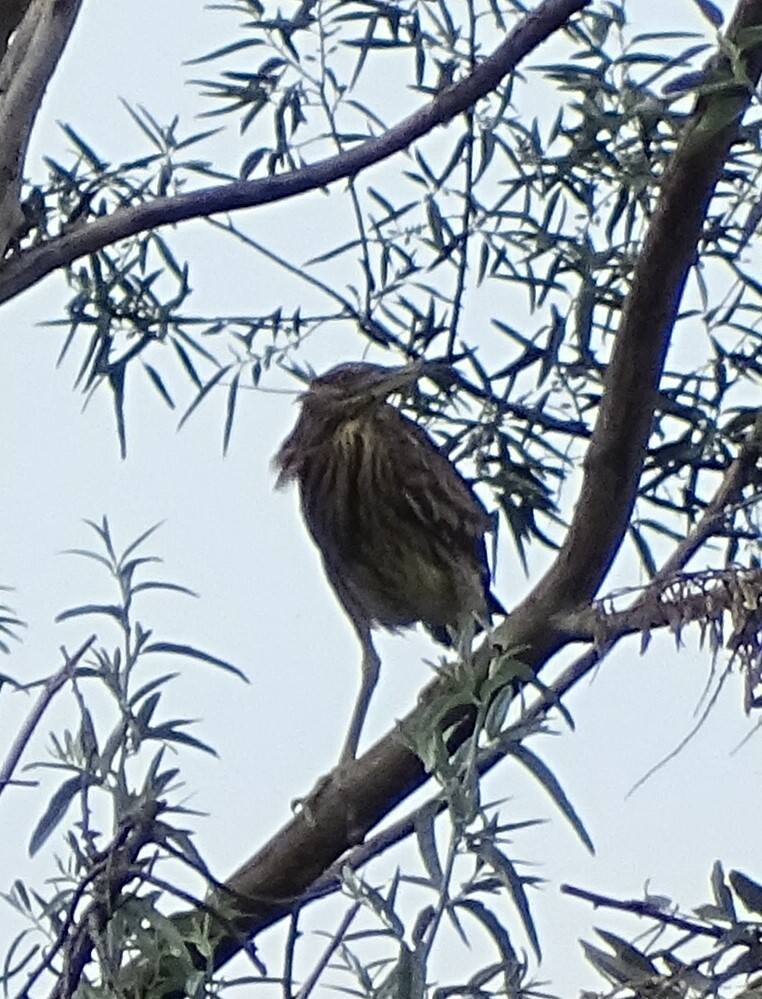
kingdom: Animalia
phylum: Chordata
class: Aves
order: Pelecaniformes
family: Ardeidae
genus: Nycticorax
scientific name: Nycticorax nycticorax
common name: Black-crowned night heron
